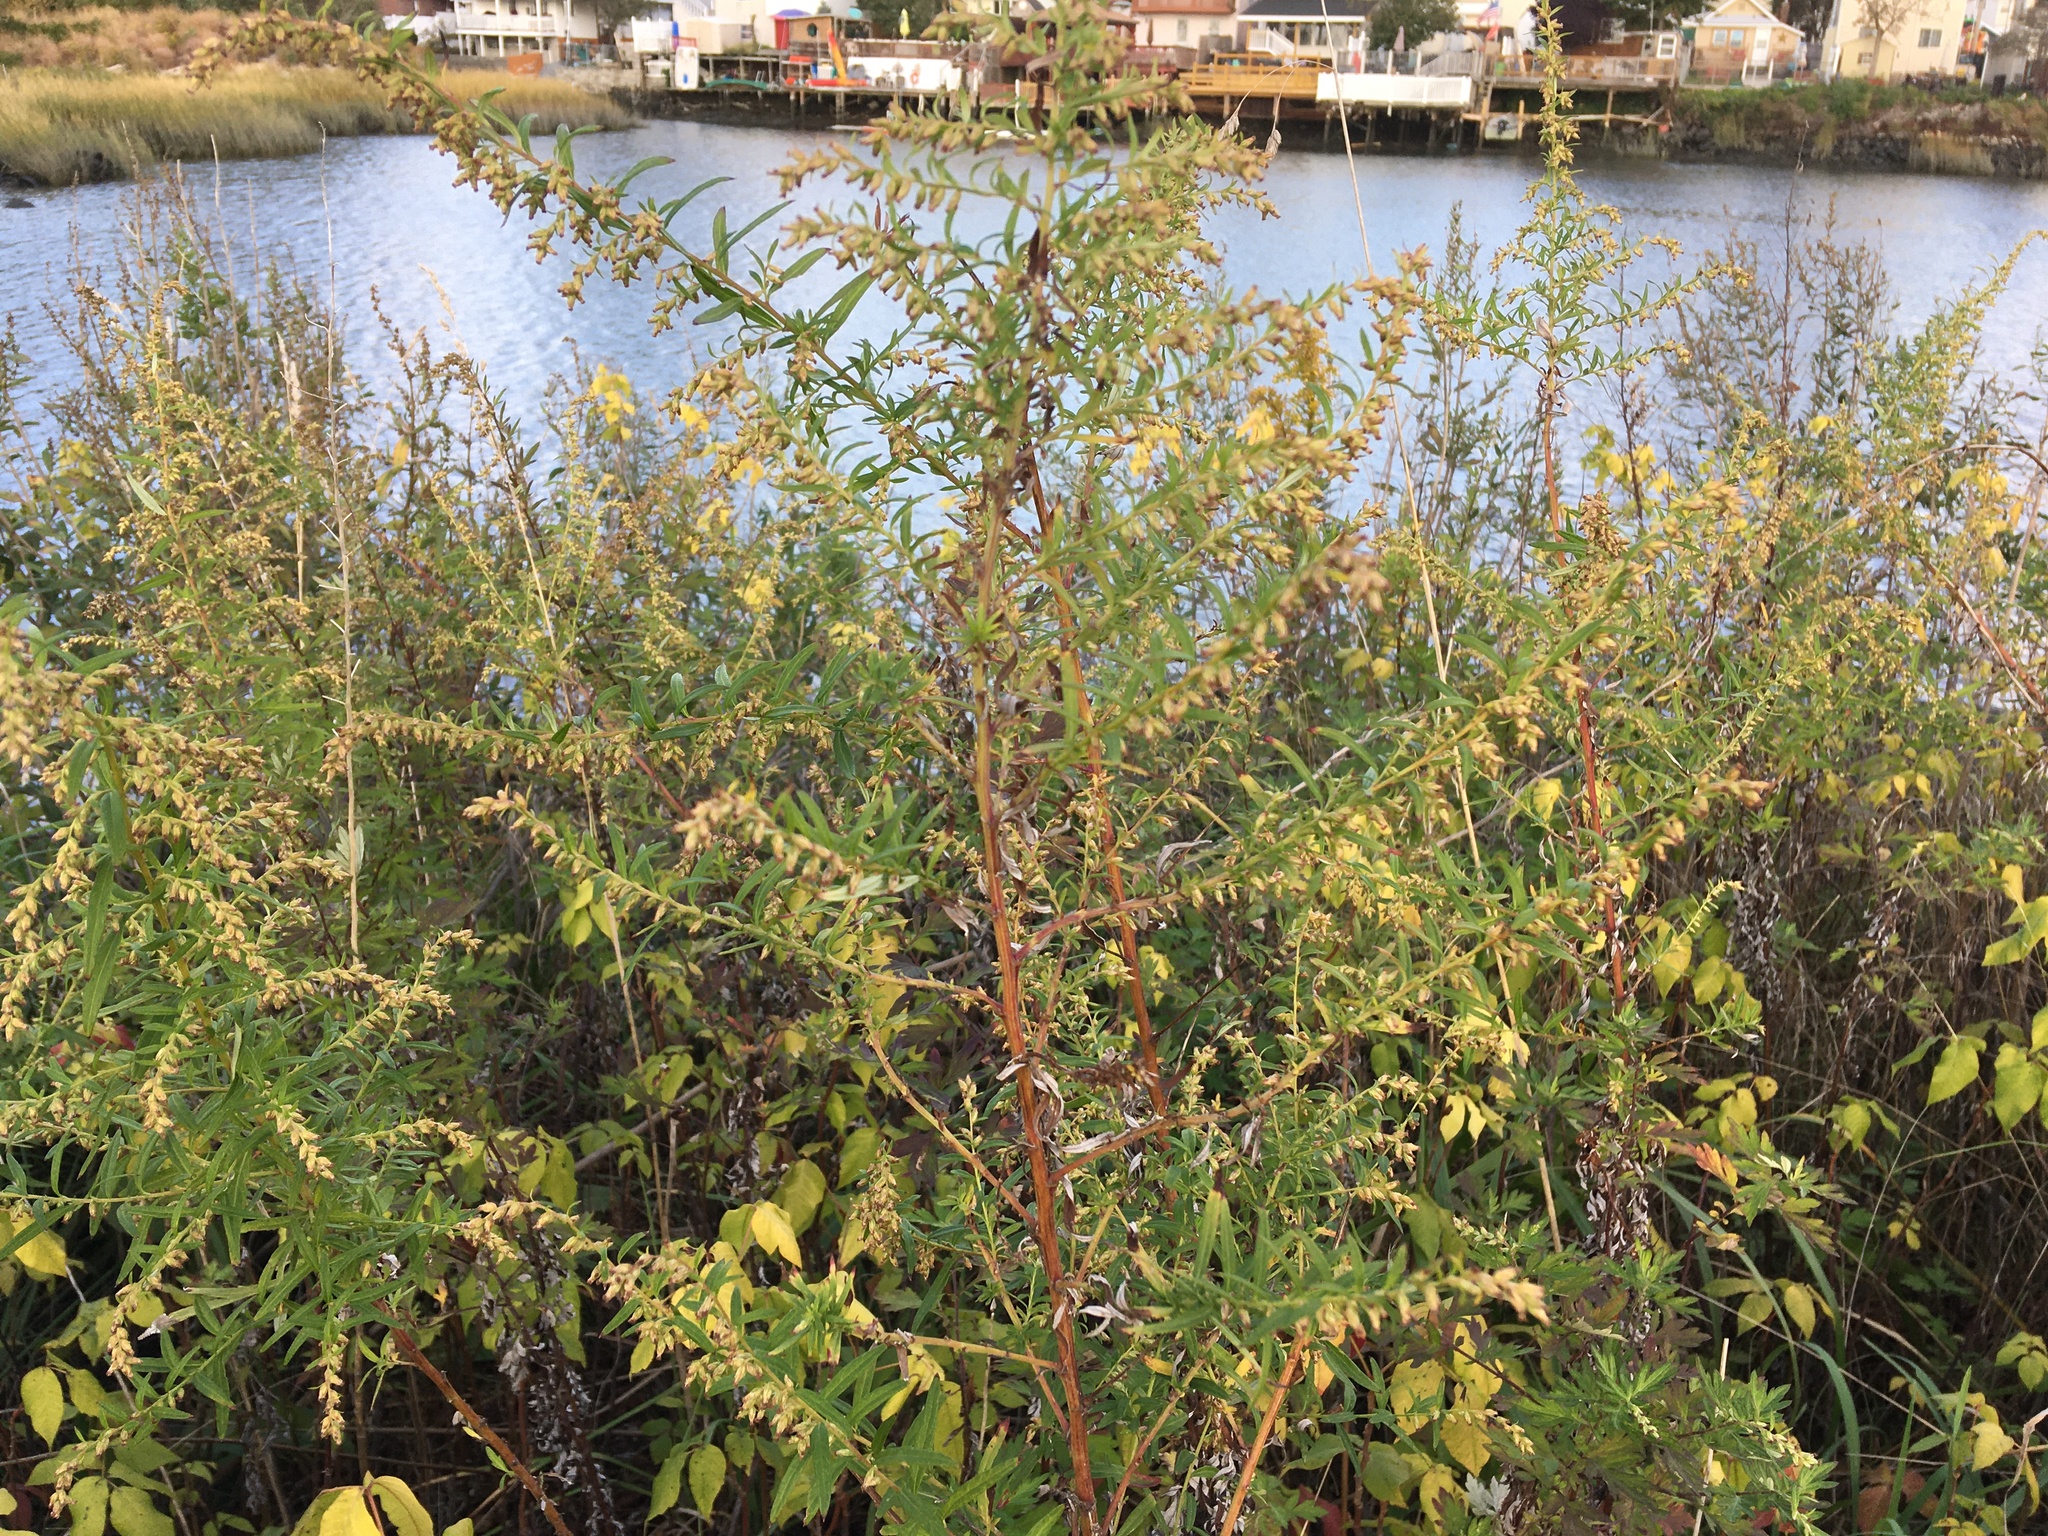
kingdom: Plantae
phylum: Tracheophyta
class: Magnoliopsida
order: Asterales
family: Asteraceae
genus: Artemisia
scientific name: Artemisia vulgaris
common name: Mugwort
